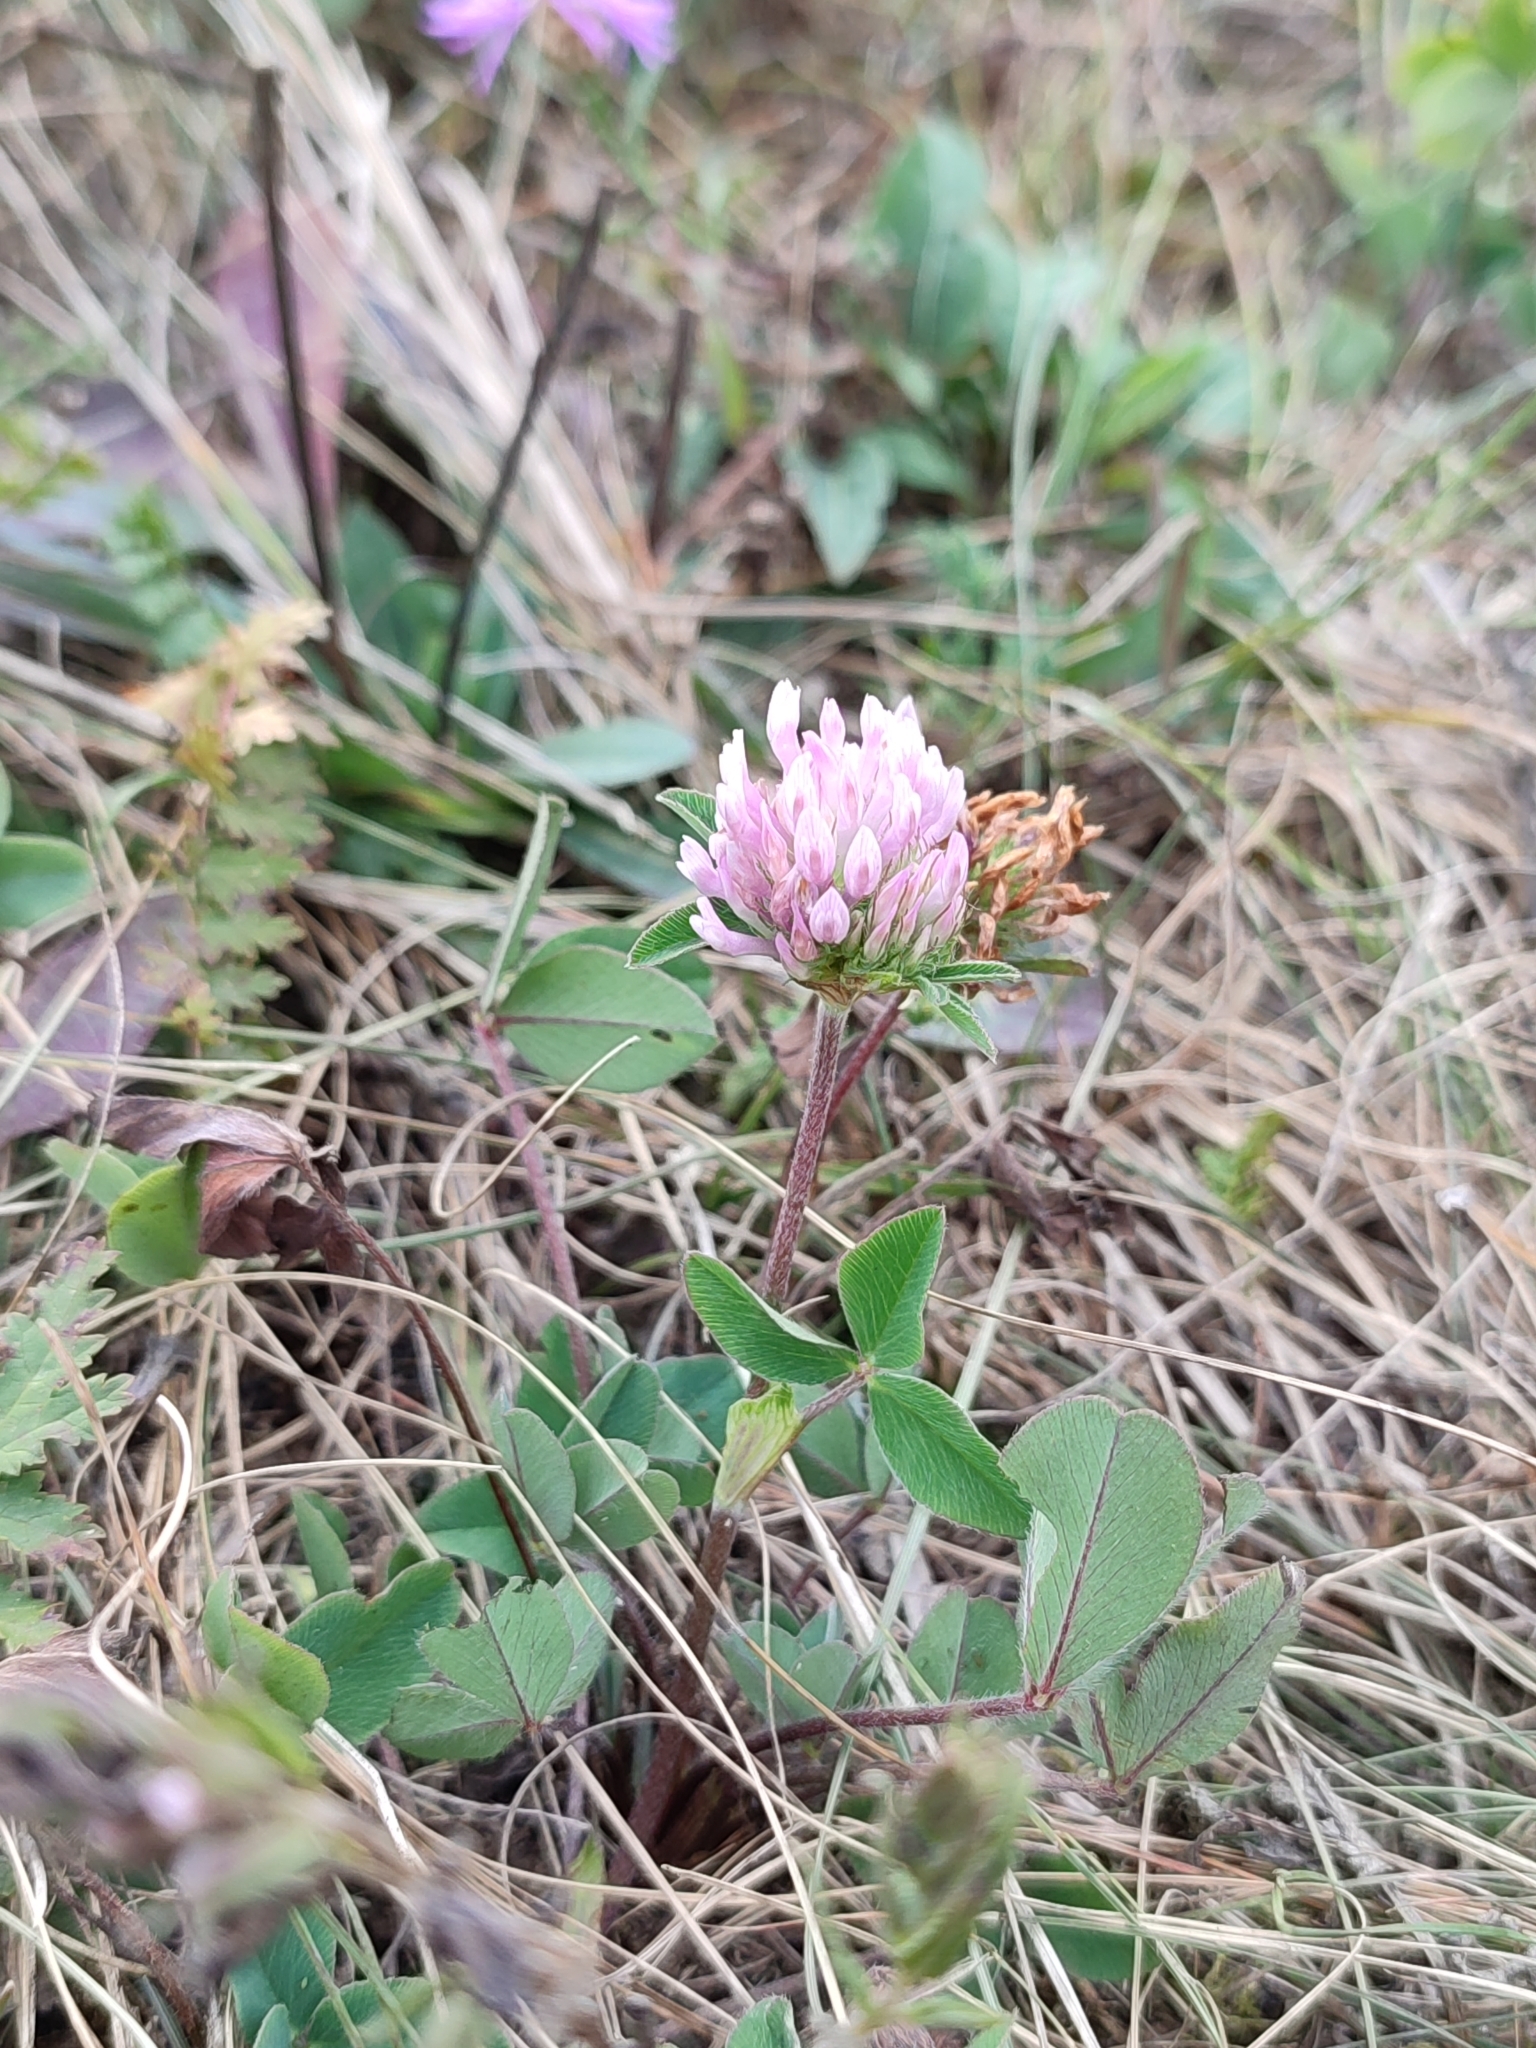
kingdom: Plantae
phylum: Tracheophyta
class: Magnoliopsida
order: Fabales
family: Fabaceae
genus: Trifolium
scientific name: Trifolium pratense
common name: Red clover
